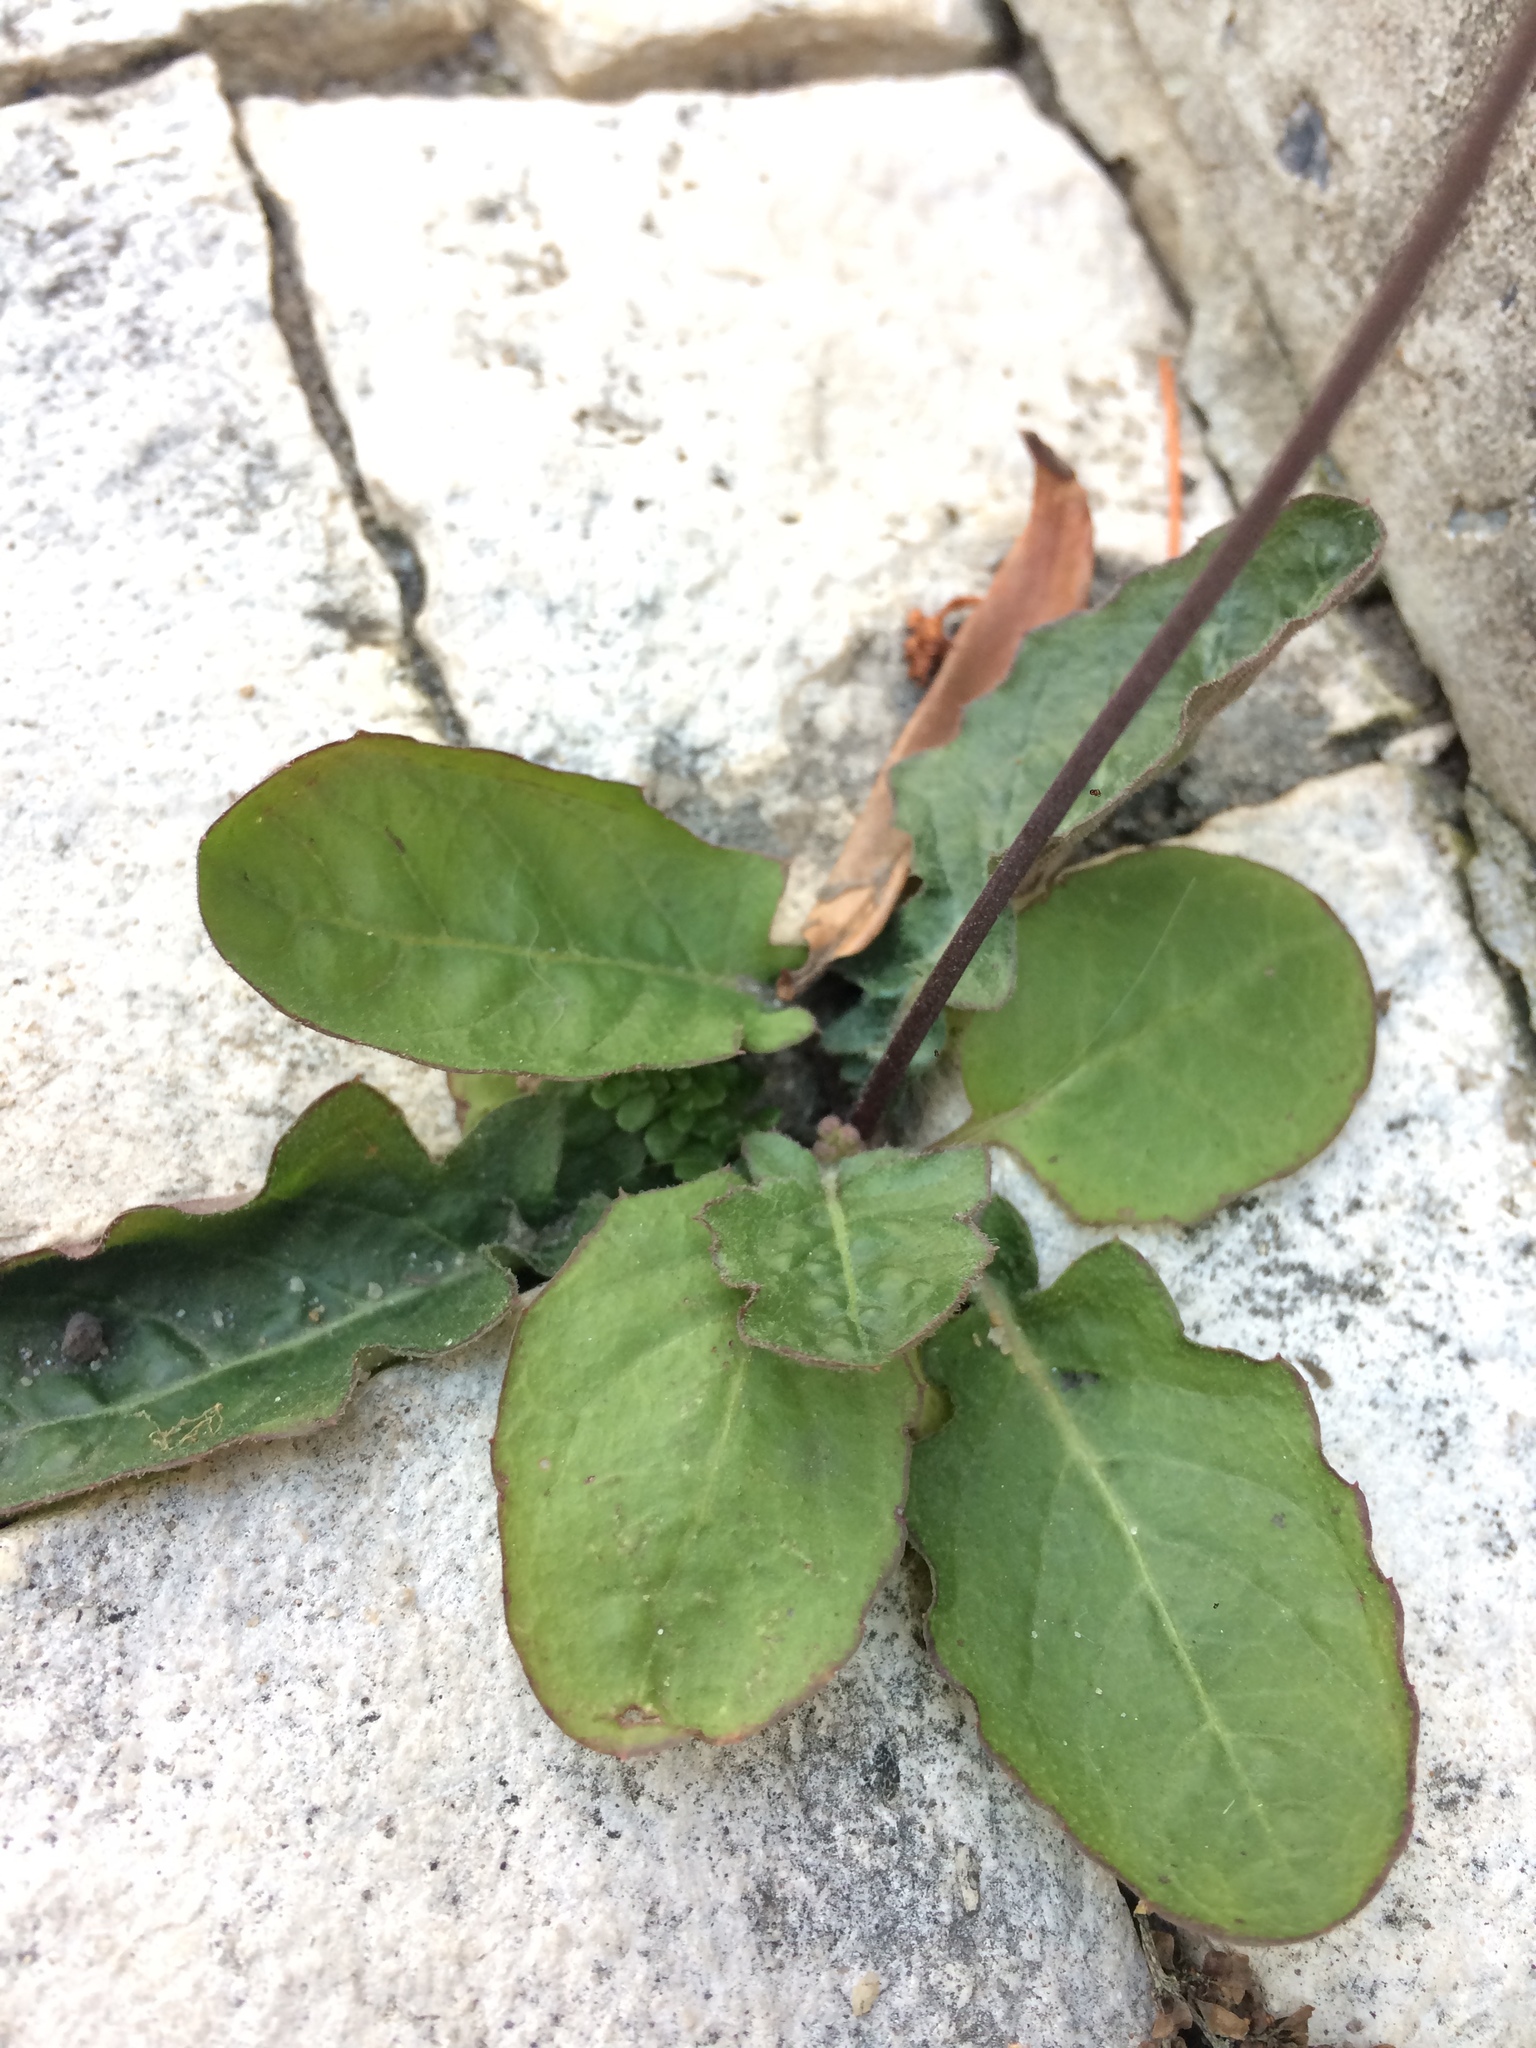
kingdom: Plantae
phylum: Tracheophyta
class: Magnoliopsida
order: Asterales
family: Asteraceae
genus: Youngia
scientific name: Youngia japonica
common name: Oriental false hawksbeard
